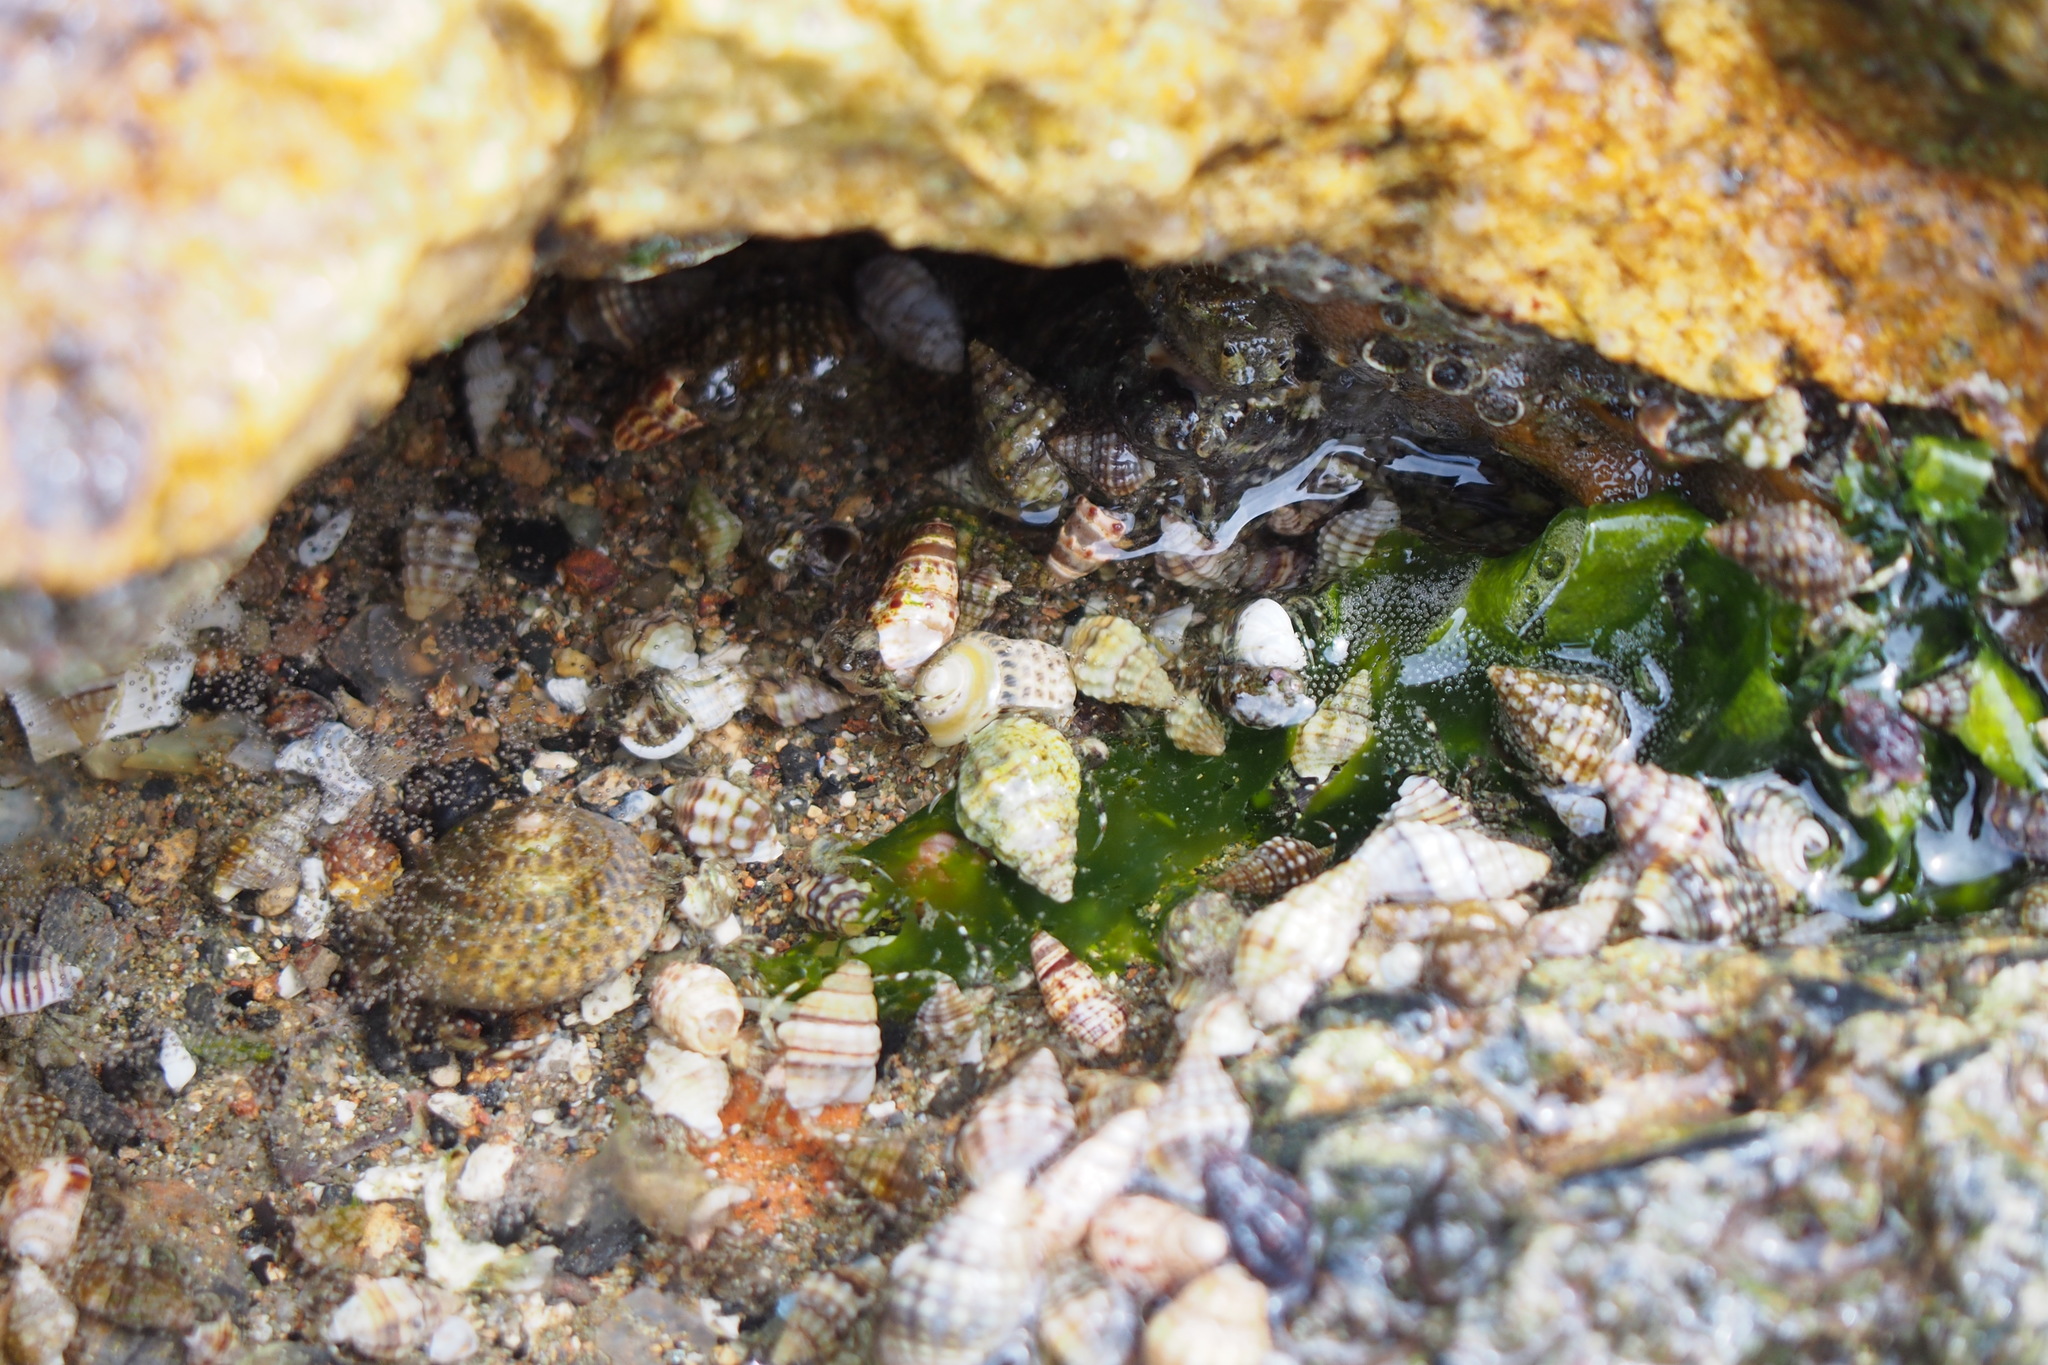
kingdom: Animalia
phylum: Arthropoda
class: Malacostraca
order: Decapoda
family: Paguridae
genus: Pagurus
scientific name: Pagurus minutus
